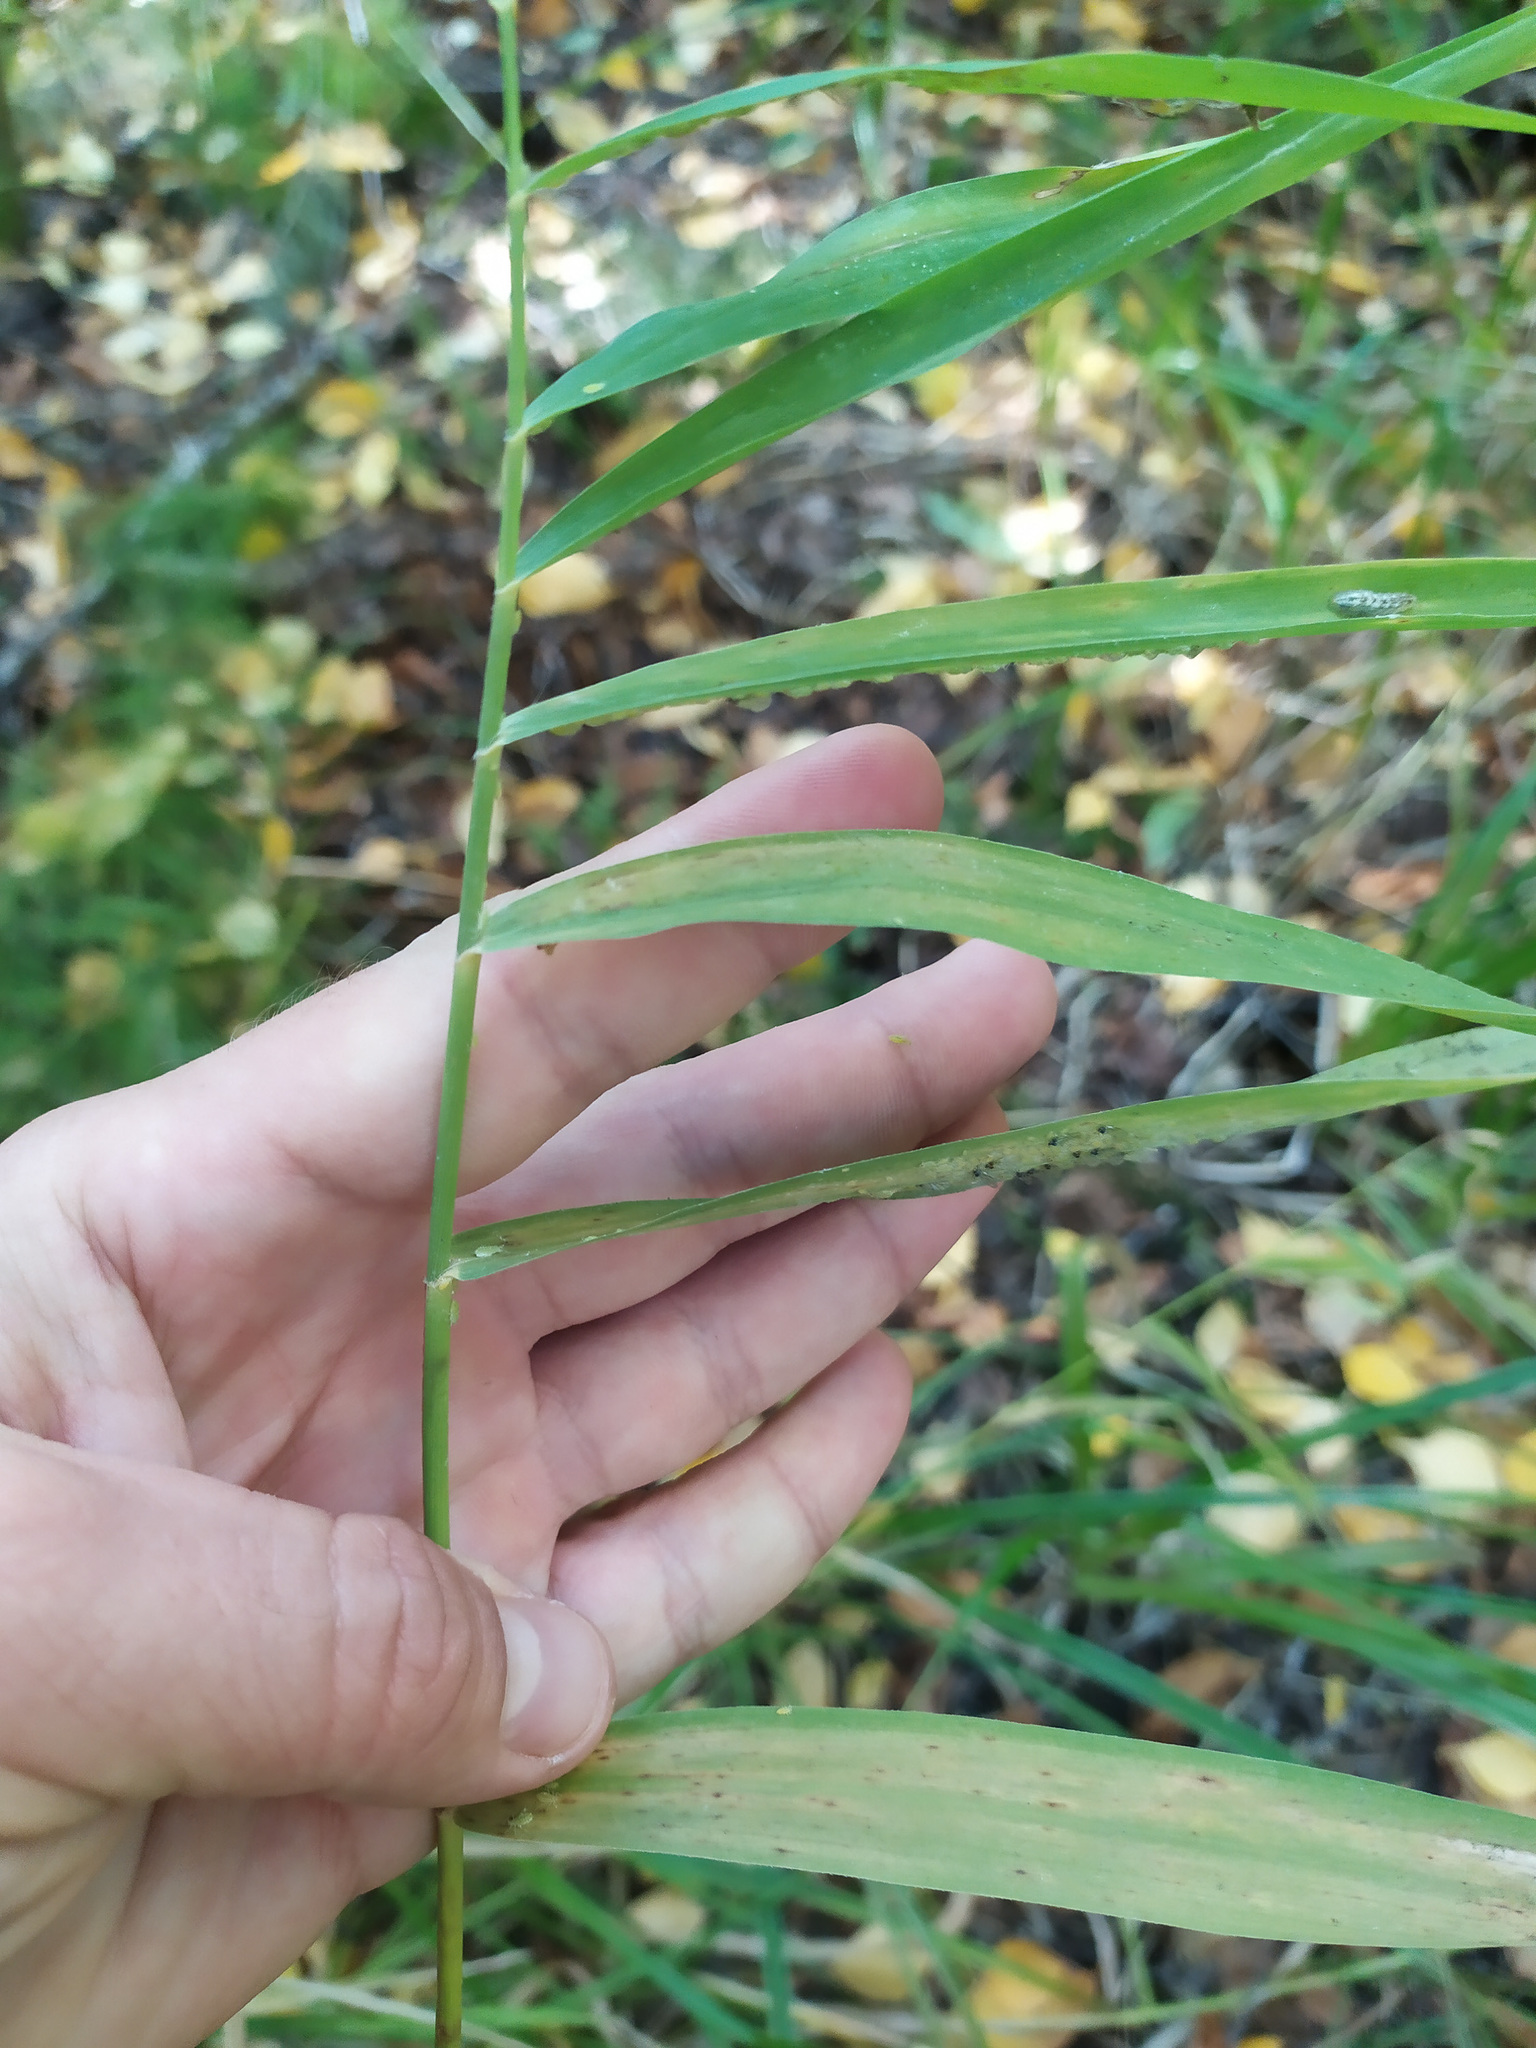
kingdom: Plantae
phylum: Tracheophyta
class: Liliopsida
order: Poales
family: Poaceae
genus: Phragmites
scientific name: Phragmites australis
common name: Common reed
